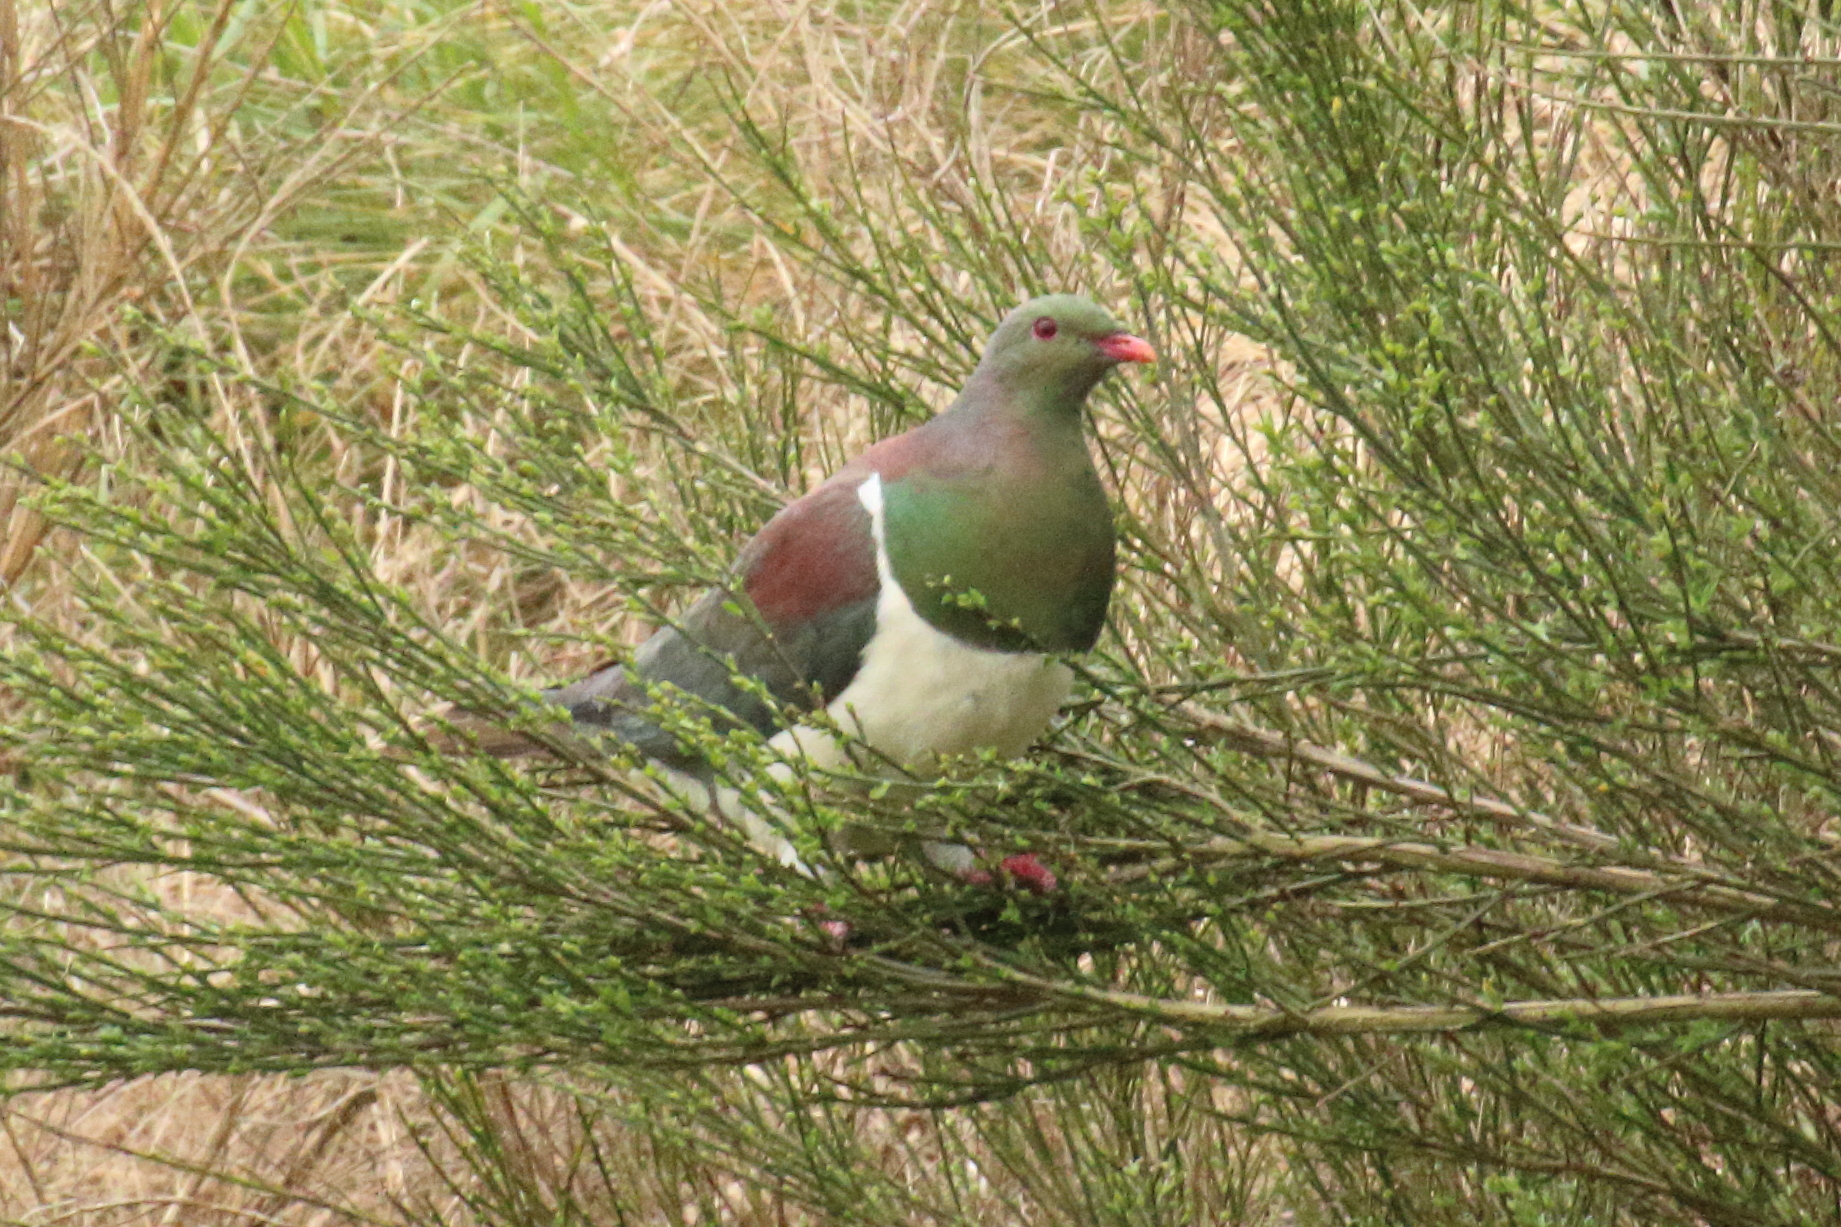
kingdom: Animalia
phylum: Chordata
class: Aves
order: Columbiformes
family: Columbidae
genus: Hemiphaga
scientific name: Hemiphaga novaeseelandiae
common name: New zealand pigeon
